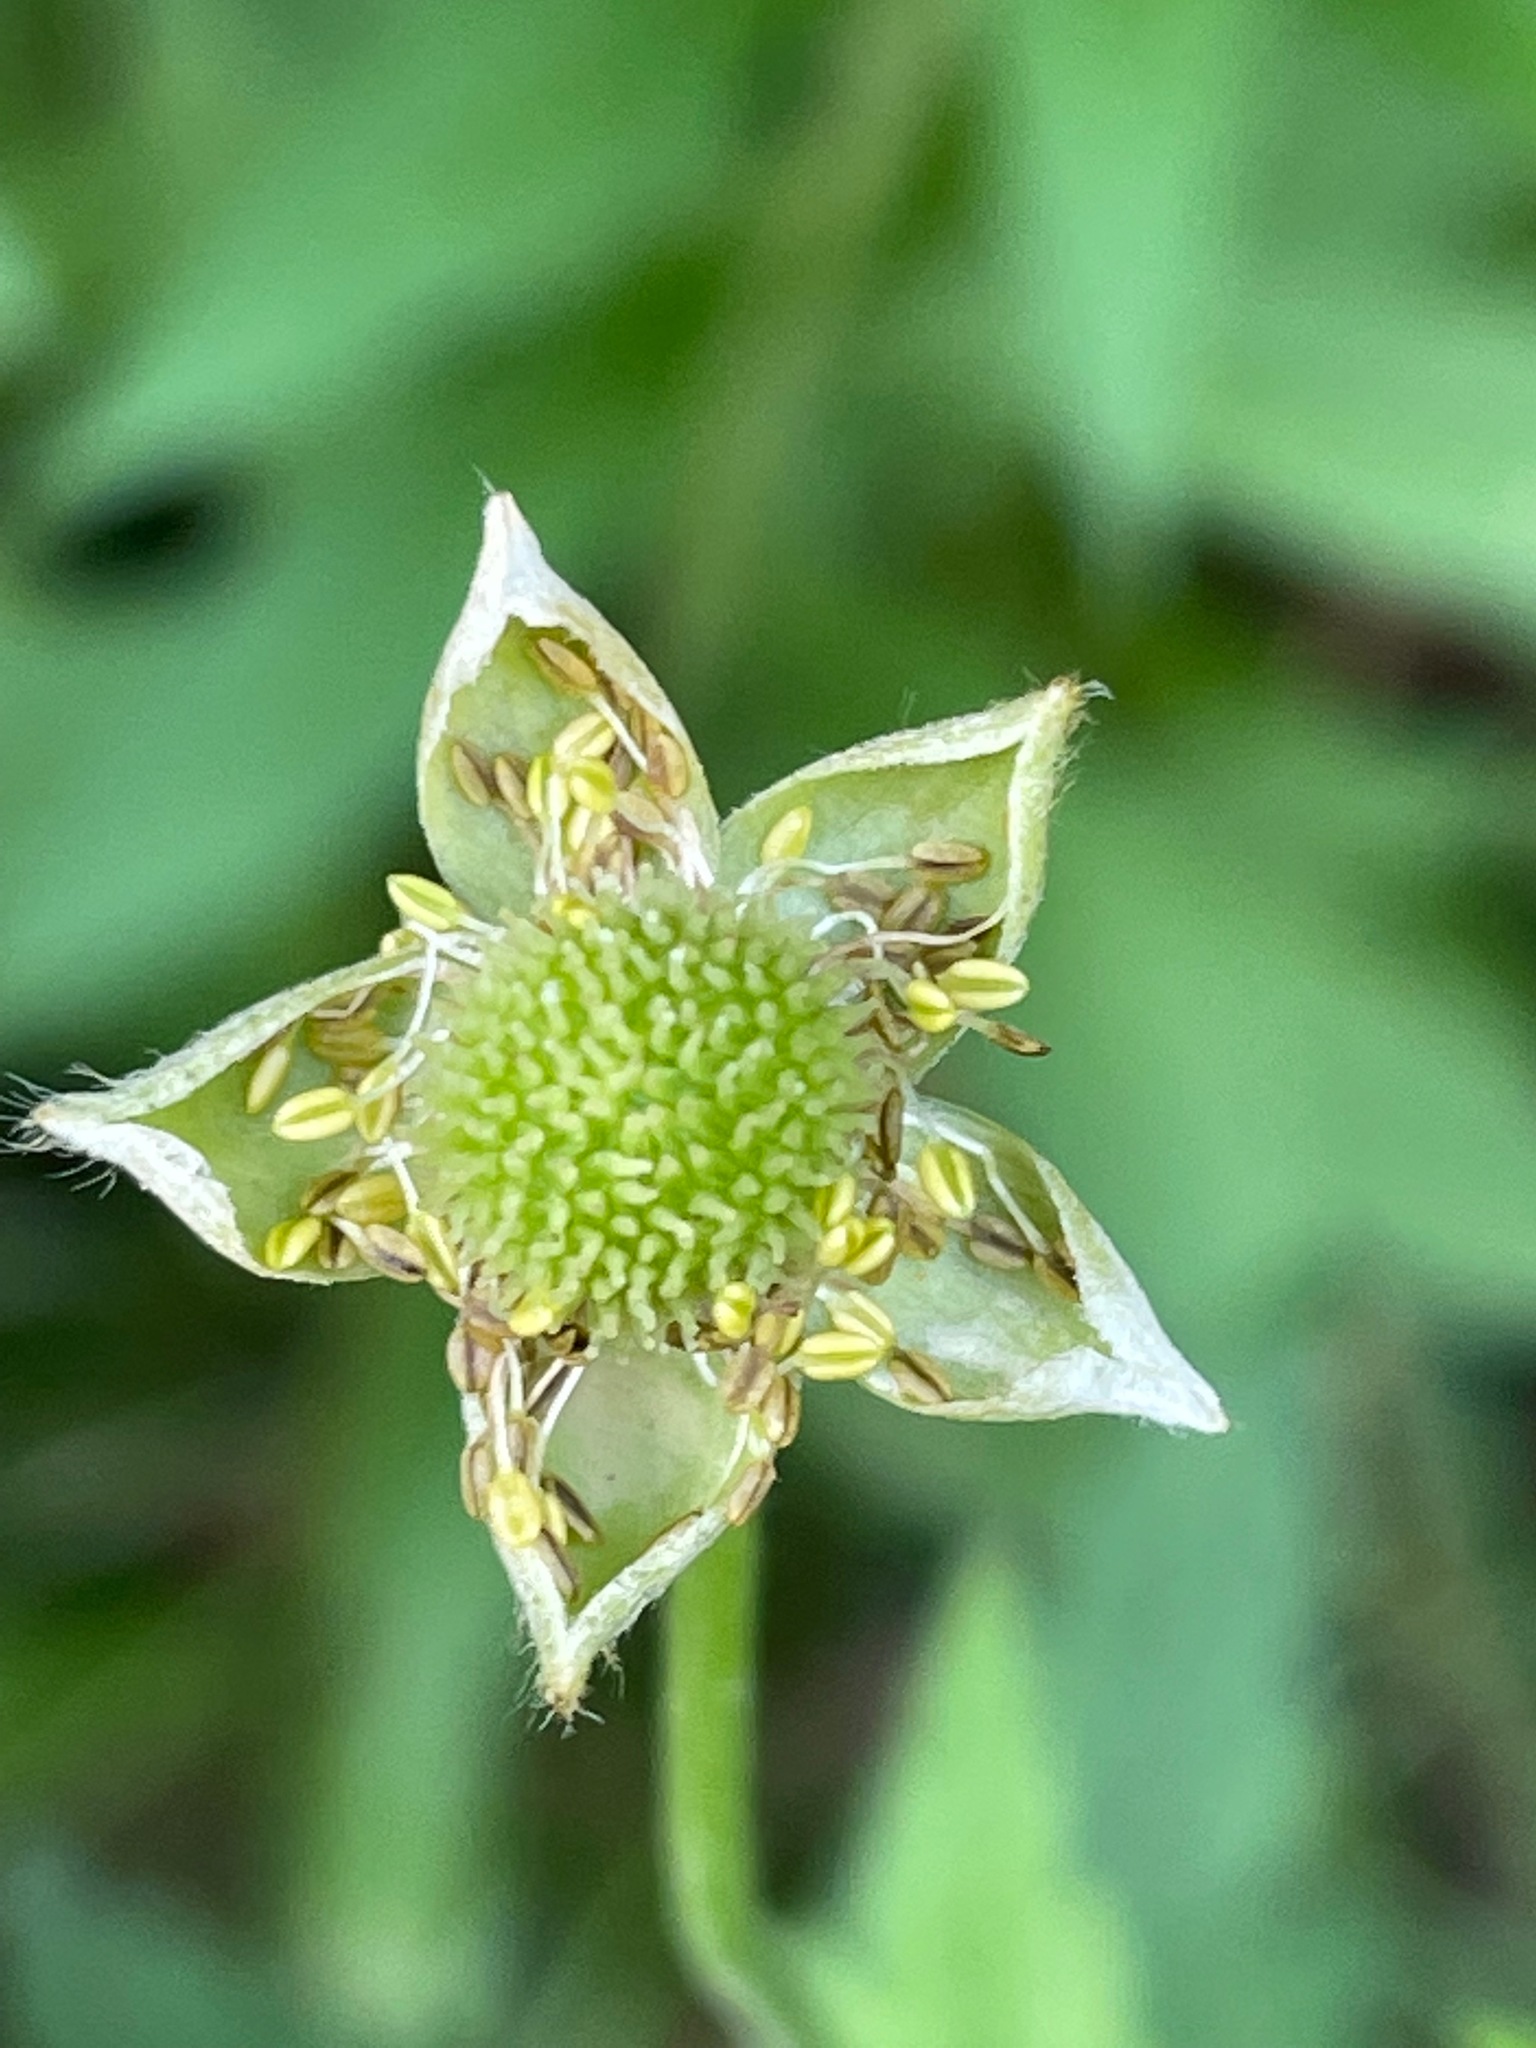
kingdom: Plantae
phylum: Tracheophyta
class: Magnoliopsida
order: Ranunculales
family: Ranunculaceae
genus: Anemone
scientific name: Anemone virginiana
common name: Tall anemone
